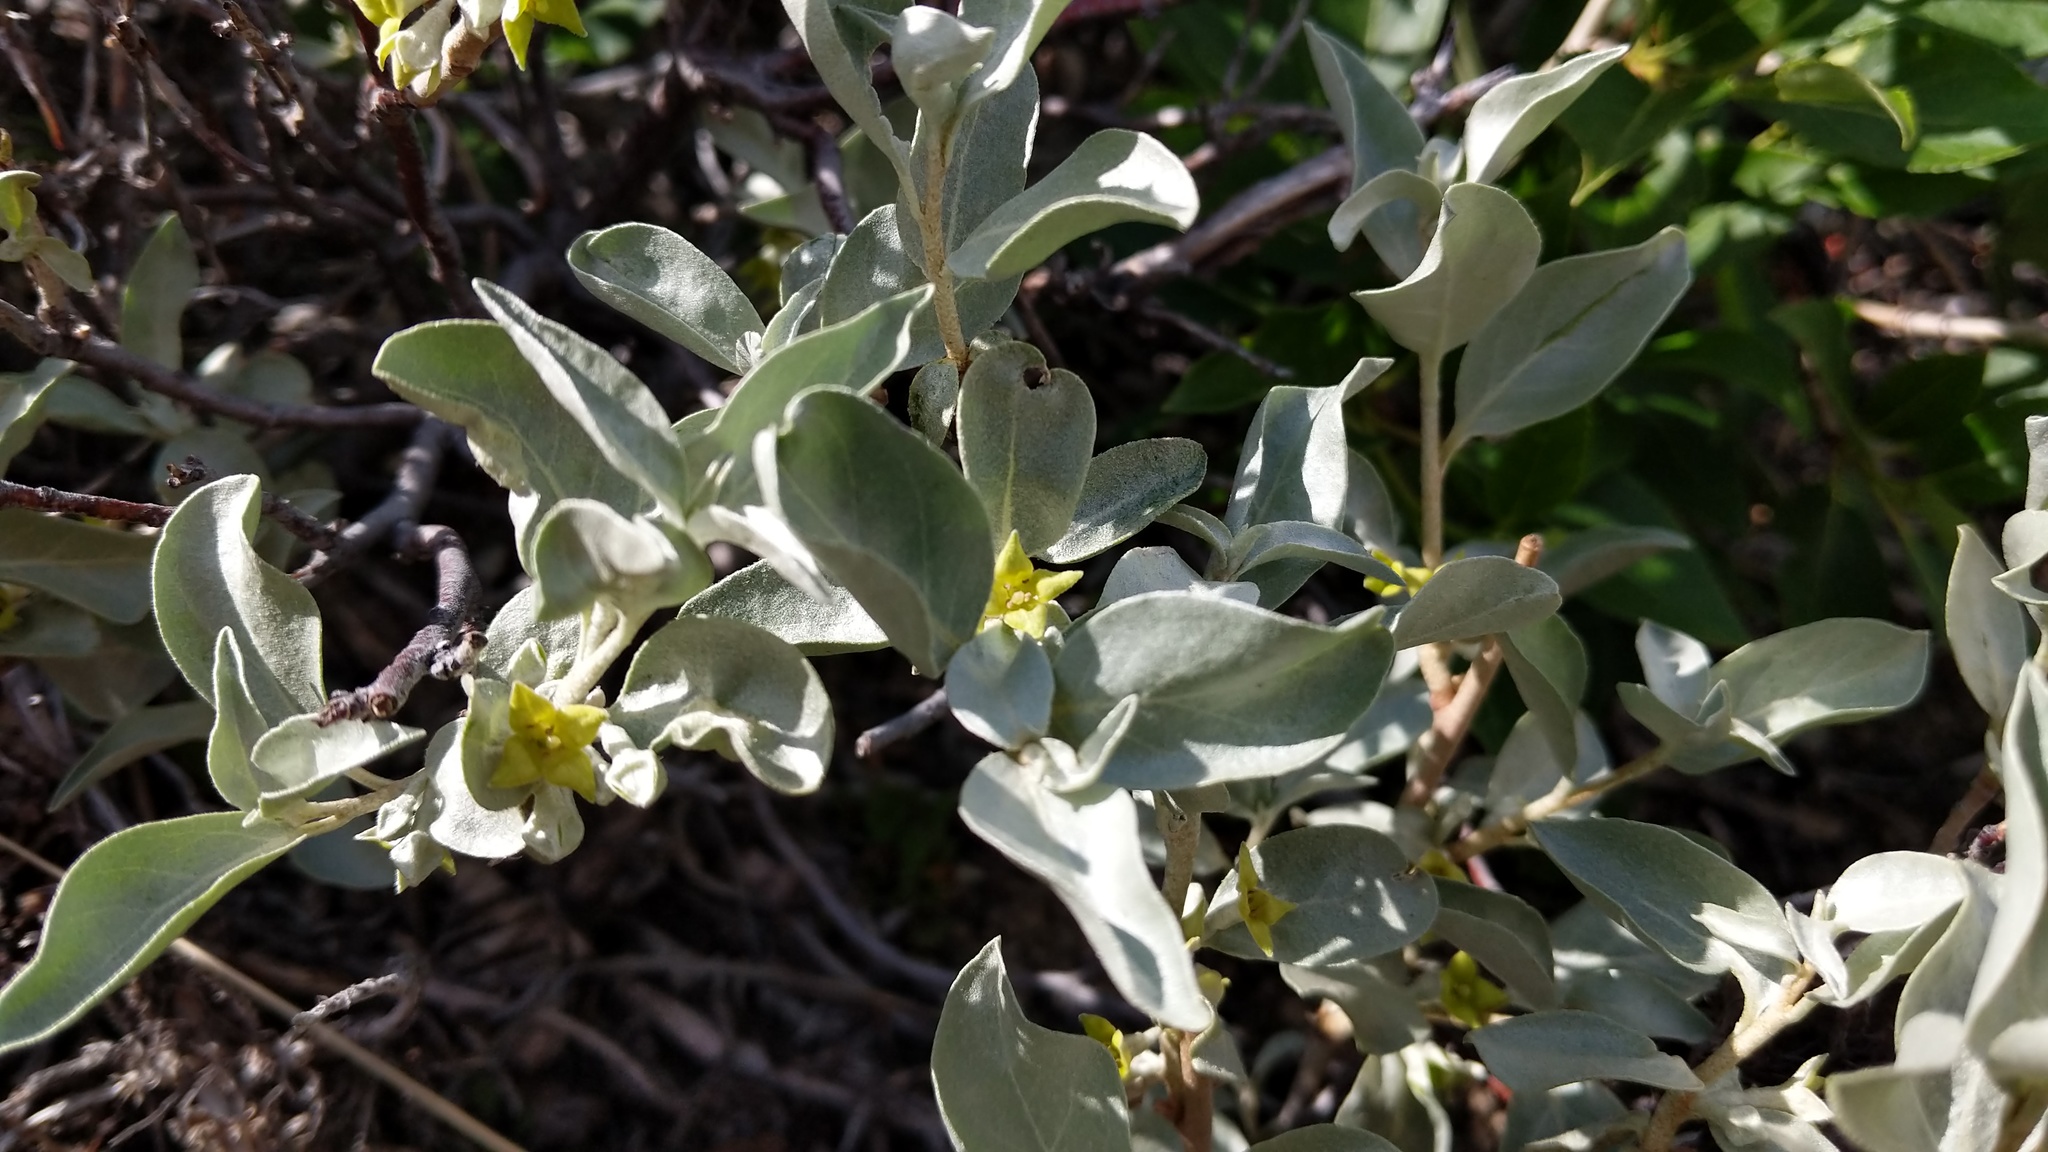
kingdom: Plantae
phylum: Tracheophyta
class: Magnoliopsida
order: Rosales
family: Elaeagnaceae
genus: Elaeagnus
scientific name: Elaeagnus commutata
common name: Silverberry
